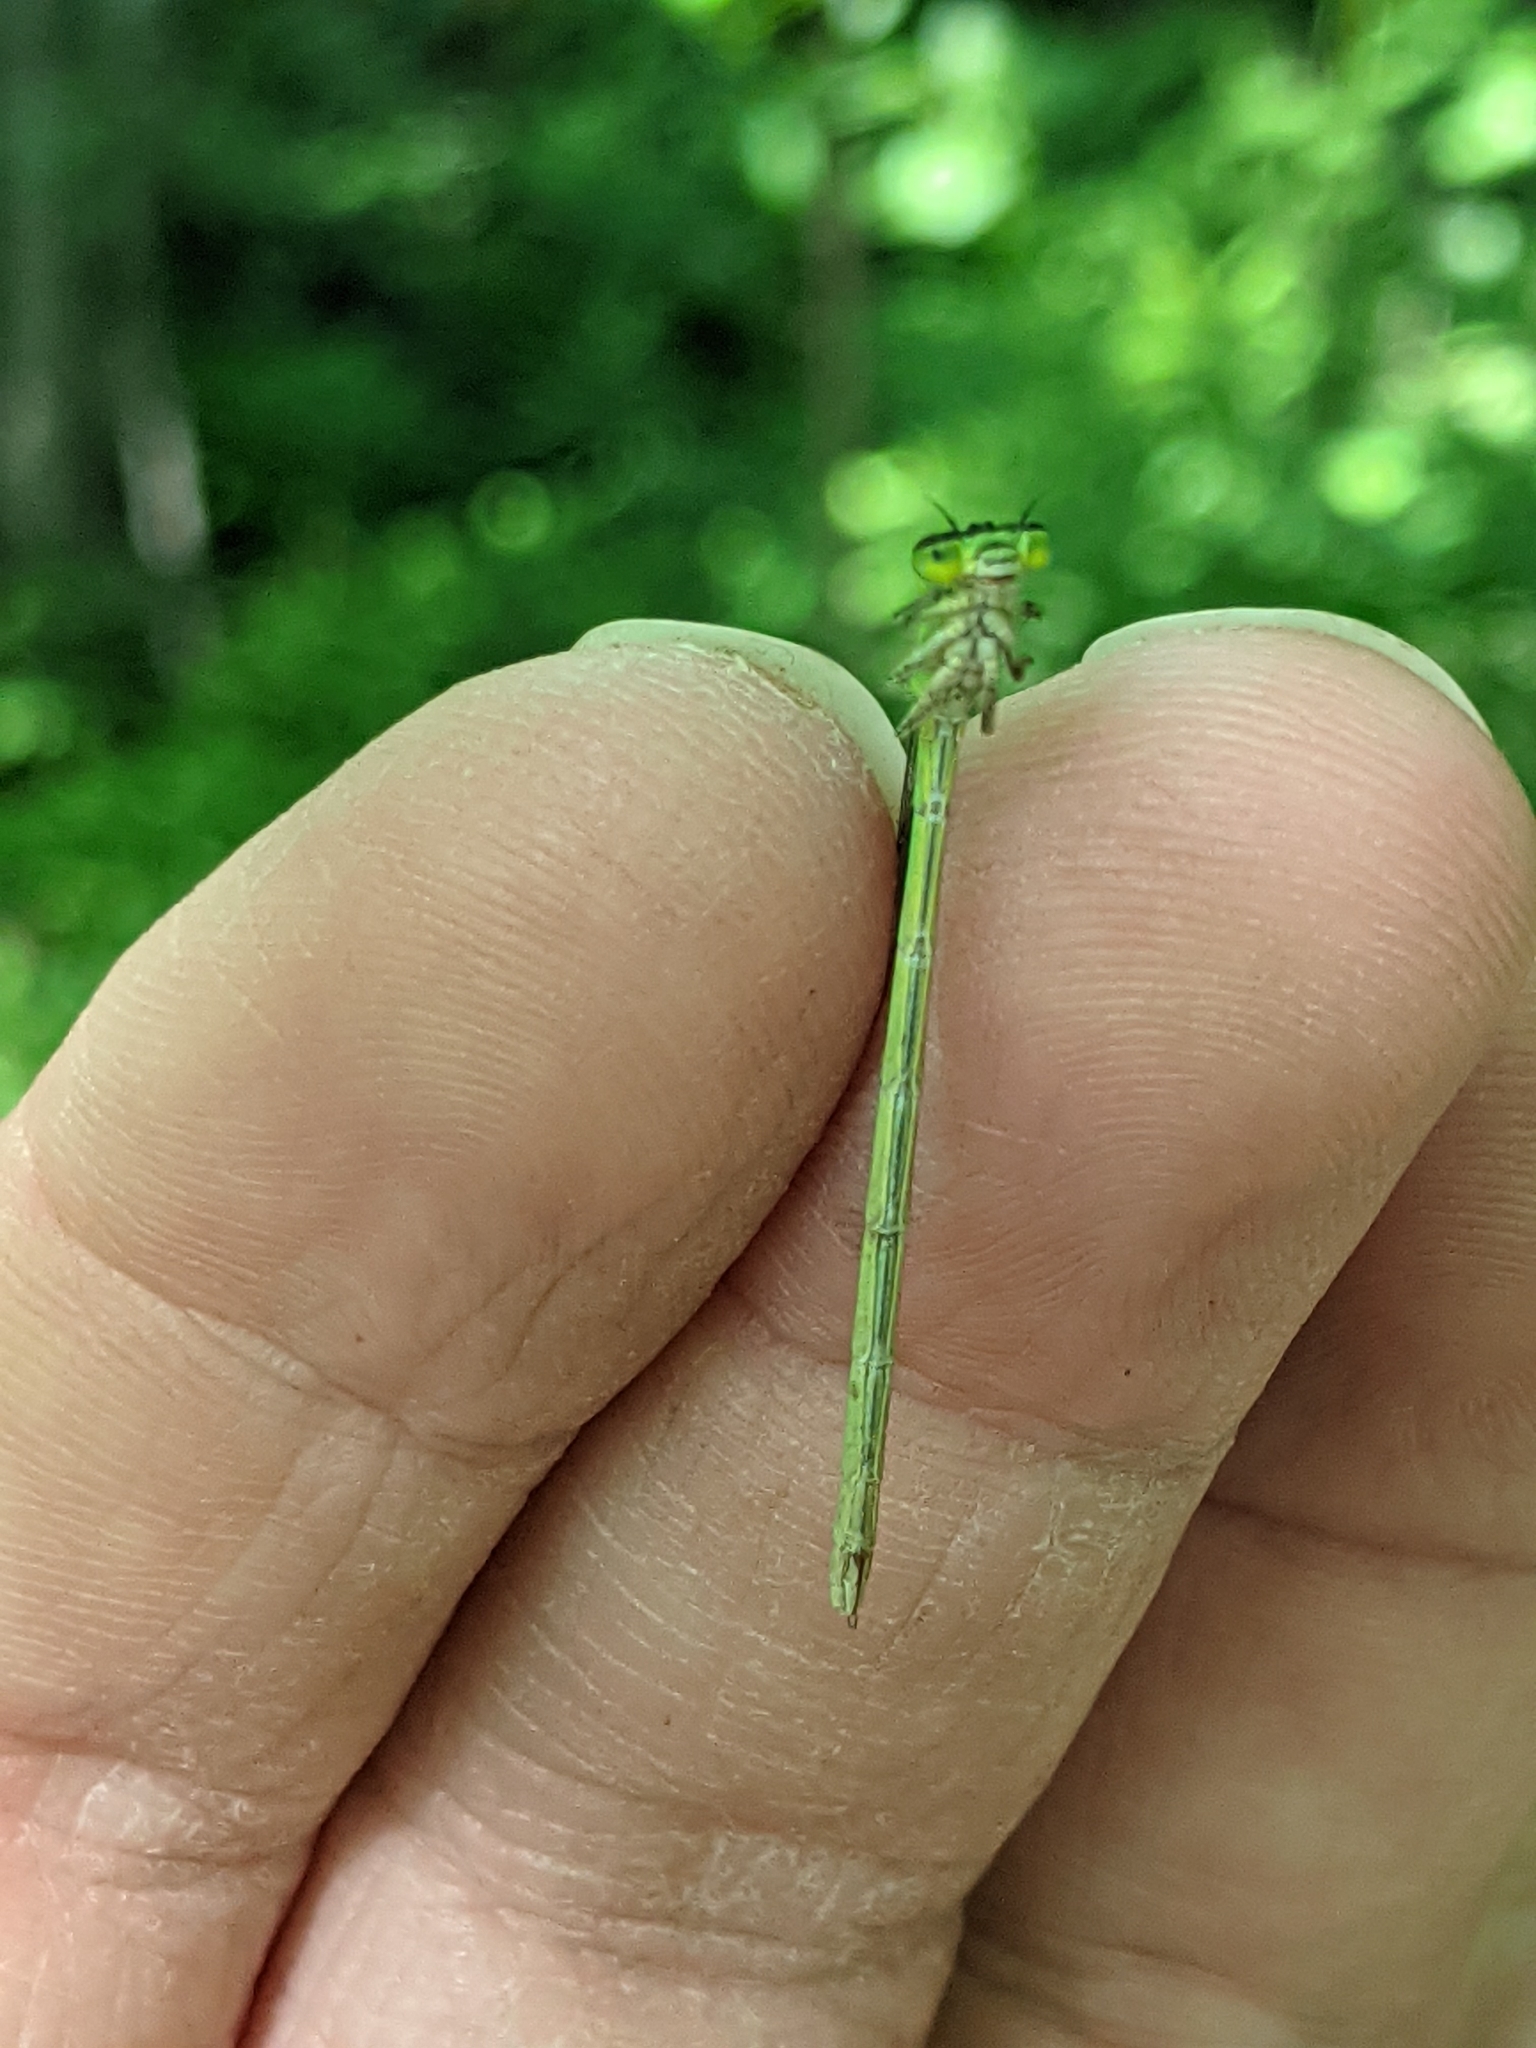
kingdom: Animalia
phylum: Arthropoda
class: Insecta
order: Odonata
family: Coenagrionidae
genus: Coenagrion
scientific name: Coenagrion resolutum
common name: Taiga bluet
